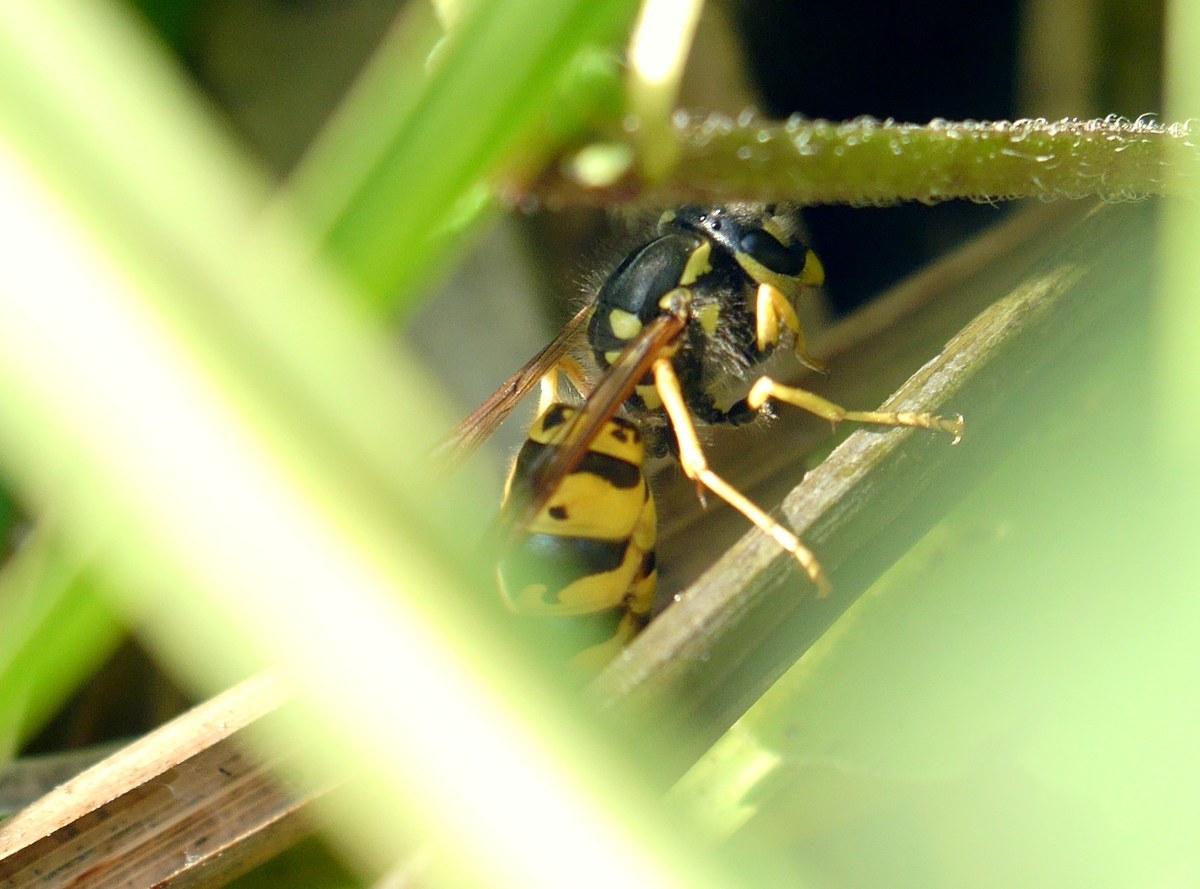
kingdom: Animalia
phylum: Arthropoda
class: Insecta
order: Hymenoptera
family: Vespidae
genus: Vespula
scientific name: Vespula germanica
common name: German wasp
